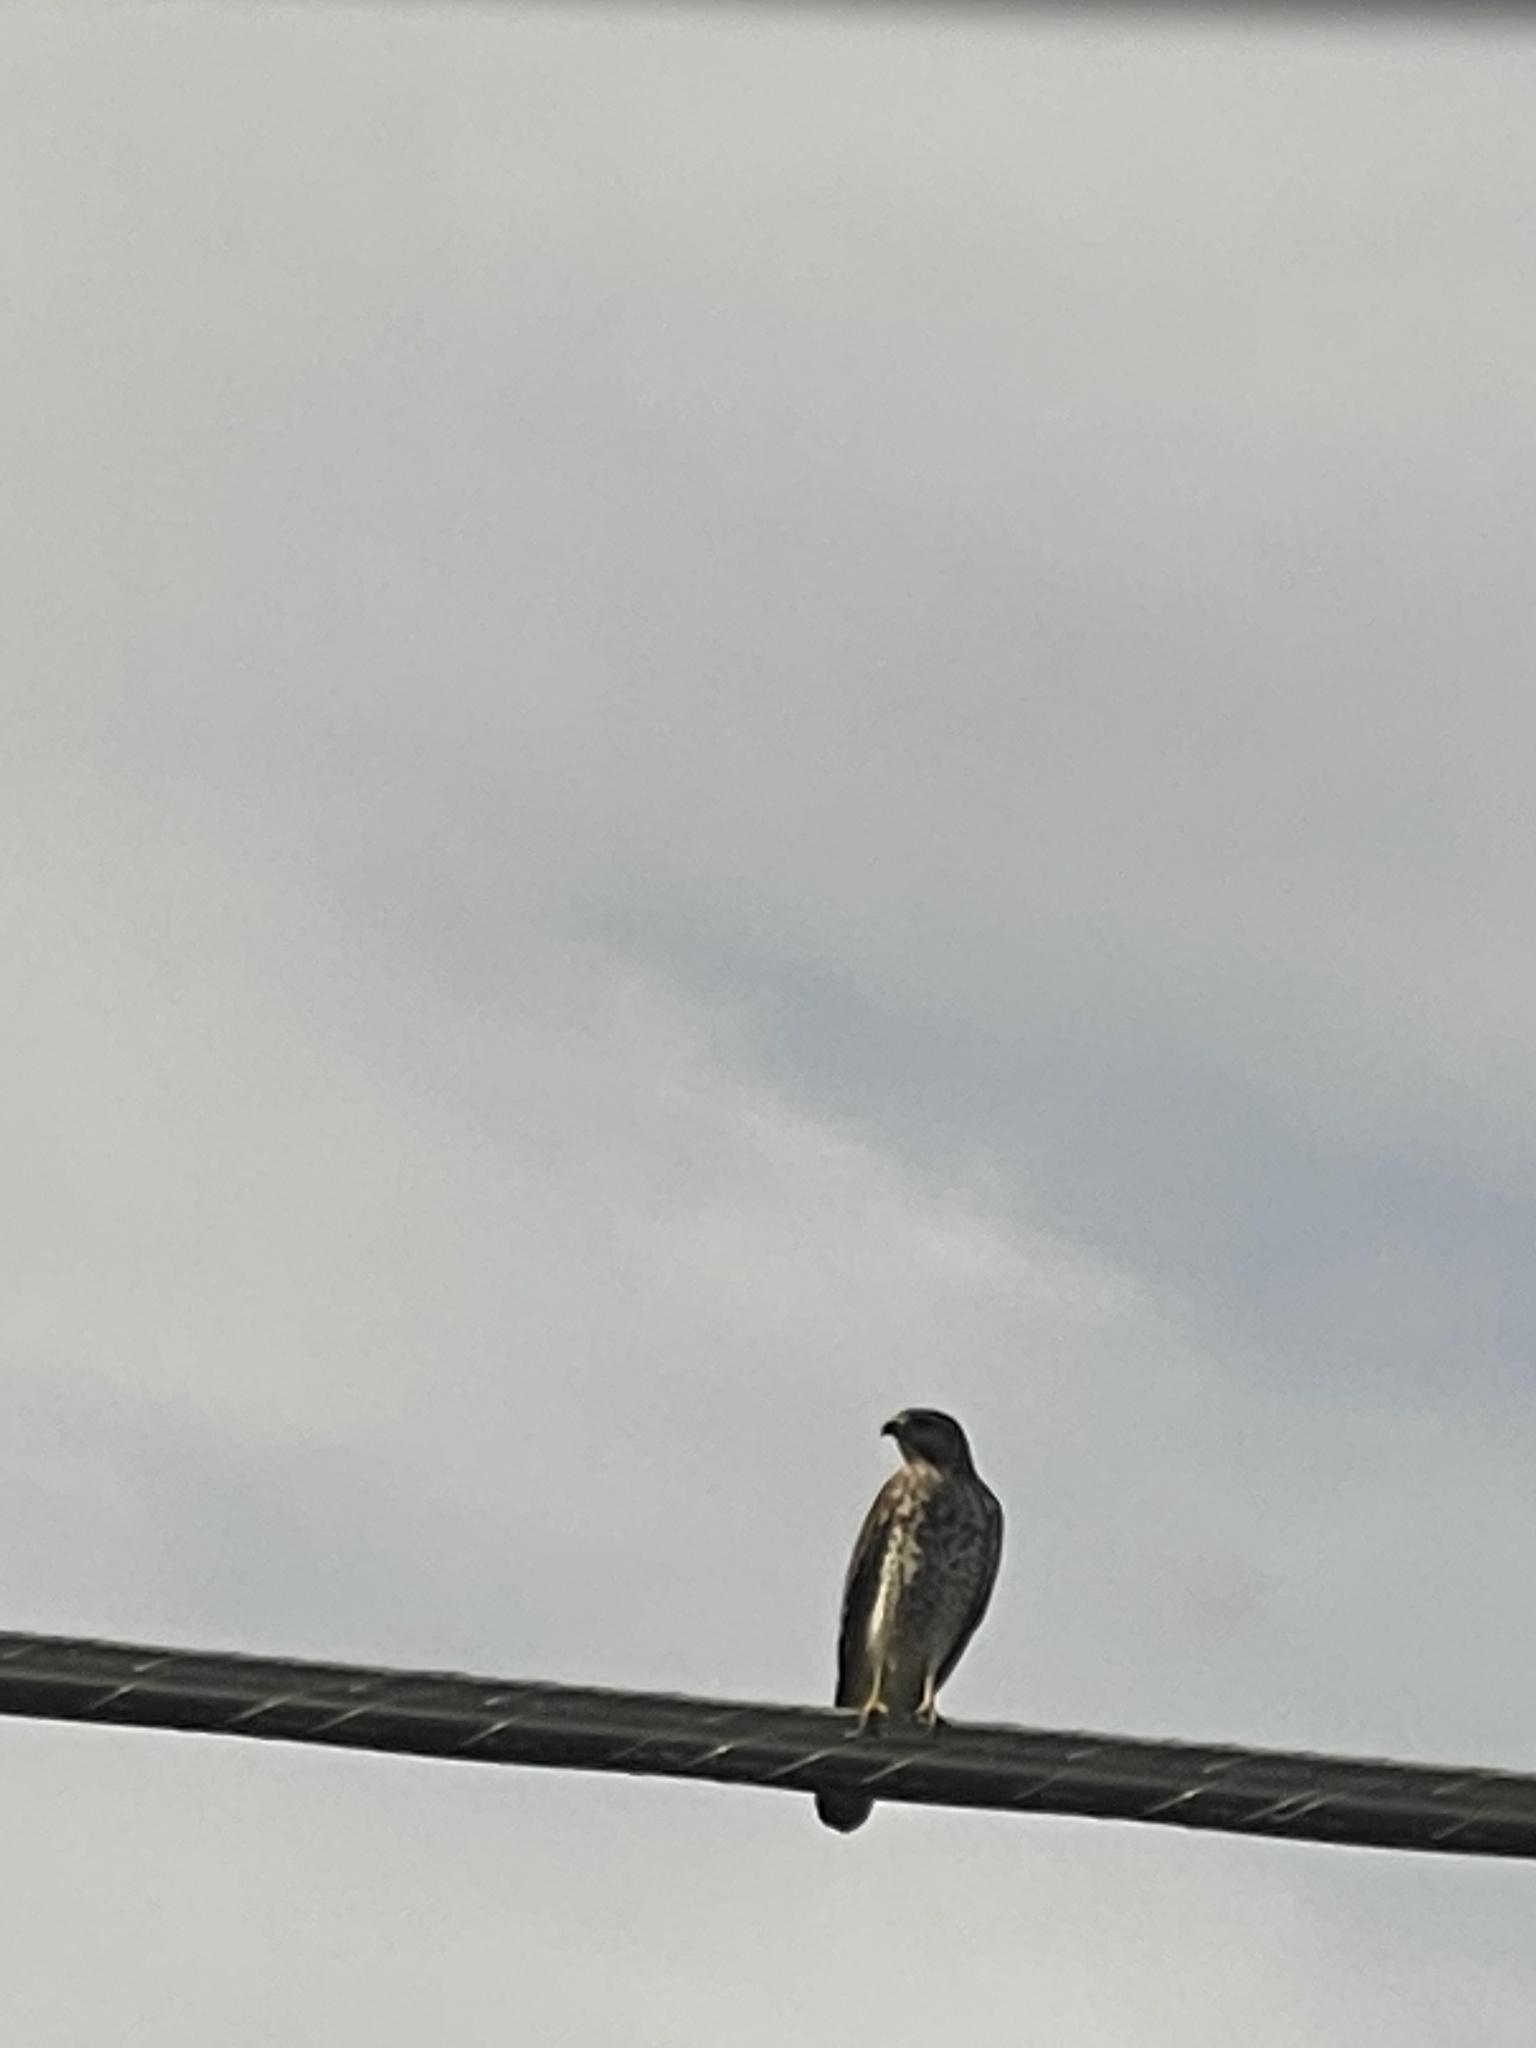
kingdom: Animalia
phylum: Chordata
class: Aves
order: Accipitriformes
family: Accipitridae
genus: Buteo
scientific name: Buteo lineatus
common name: Red-shouldered hawk
